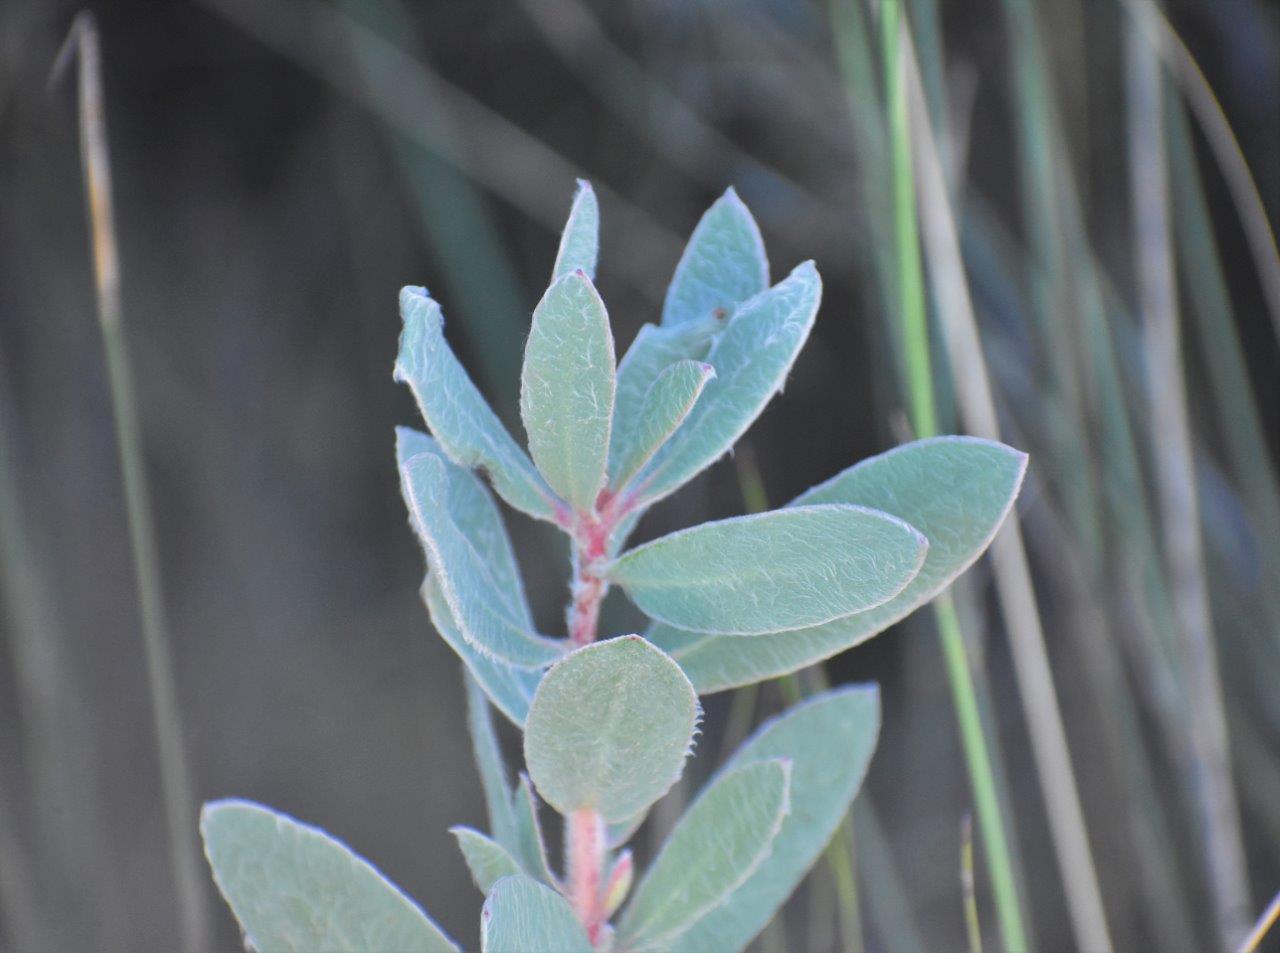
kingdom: Plantae
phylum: Tracheophyta
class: Magnoliopsida
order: Proteales
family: Proteaceae
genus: Protea
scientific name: Protea punctata
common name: Water sugarbush
